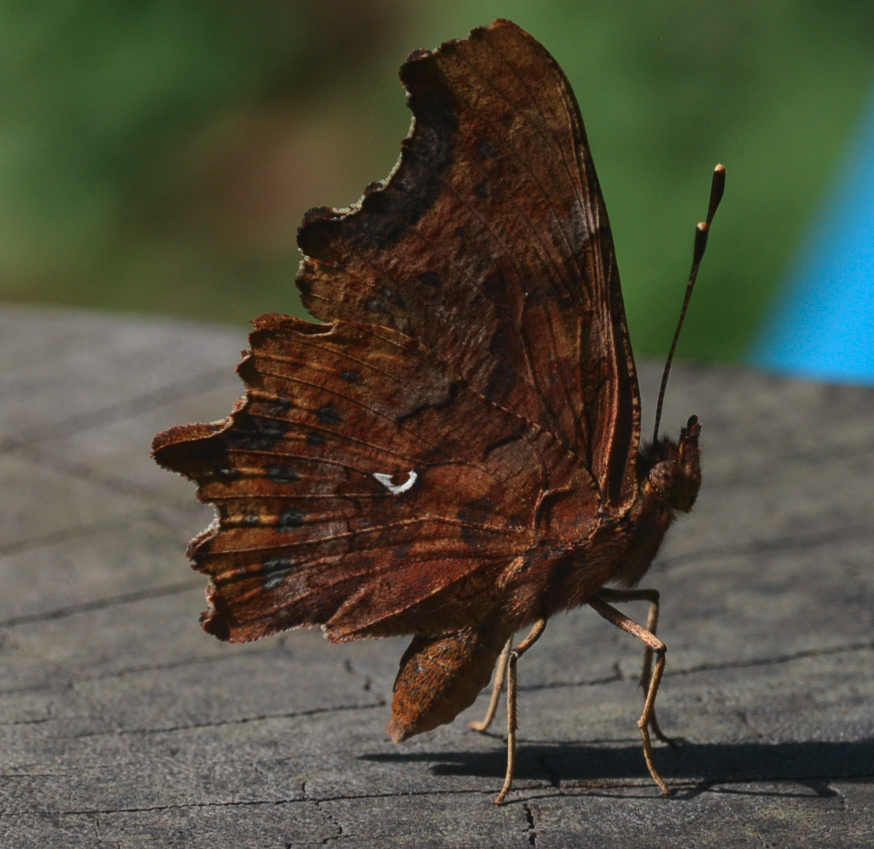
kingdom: Animalia
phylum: Arthropoda
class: Insecta
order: Lepidoptera
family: Nymphalidae
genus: Polygonia
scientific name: Polygonia c-album
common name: Comma
